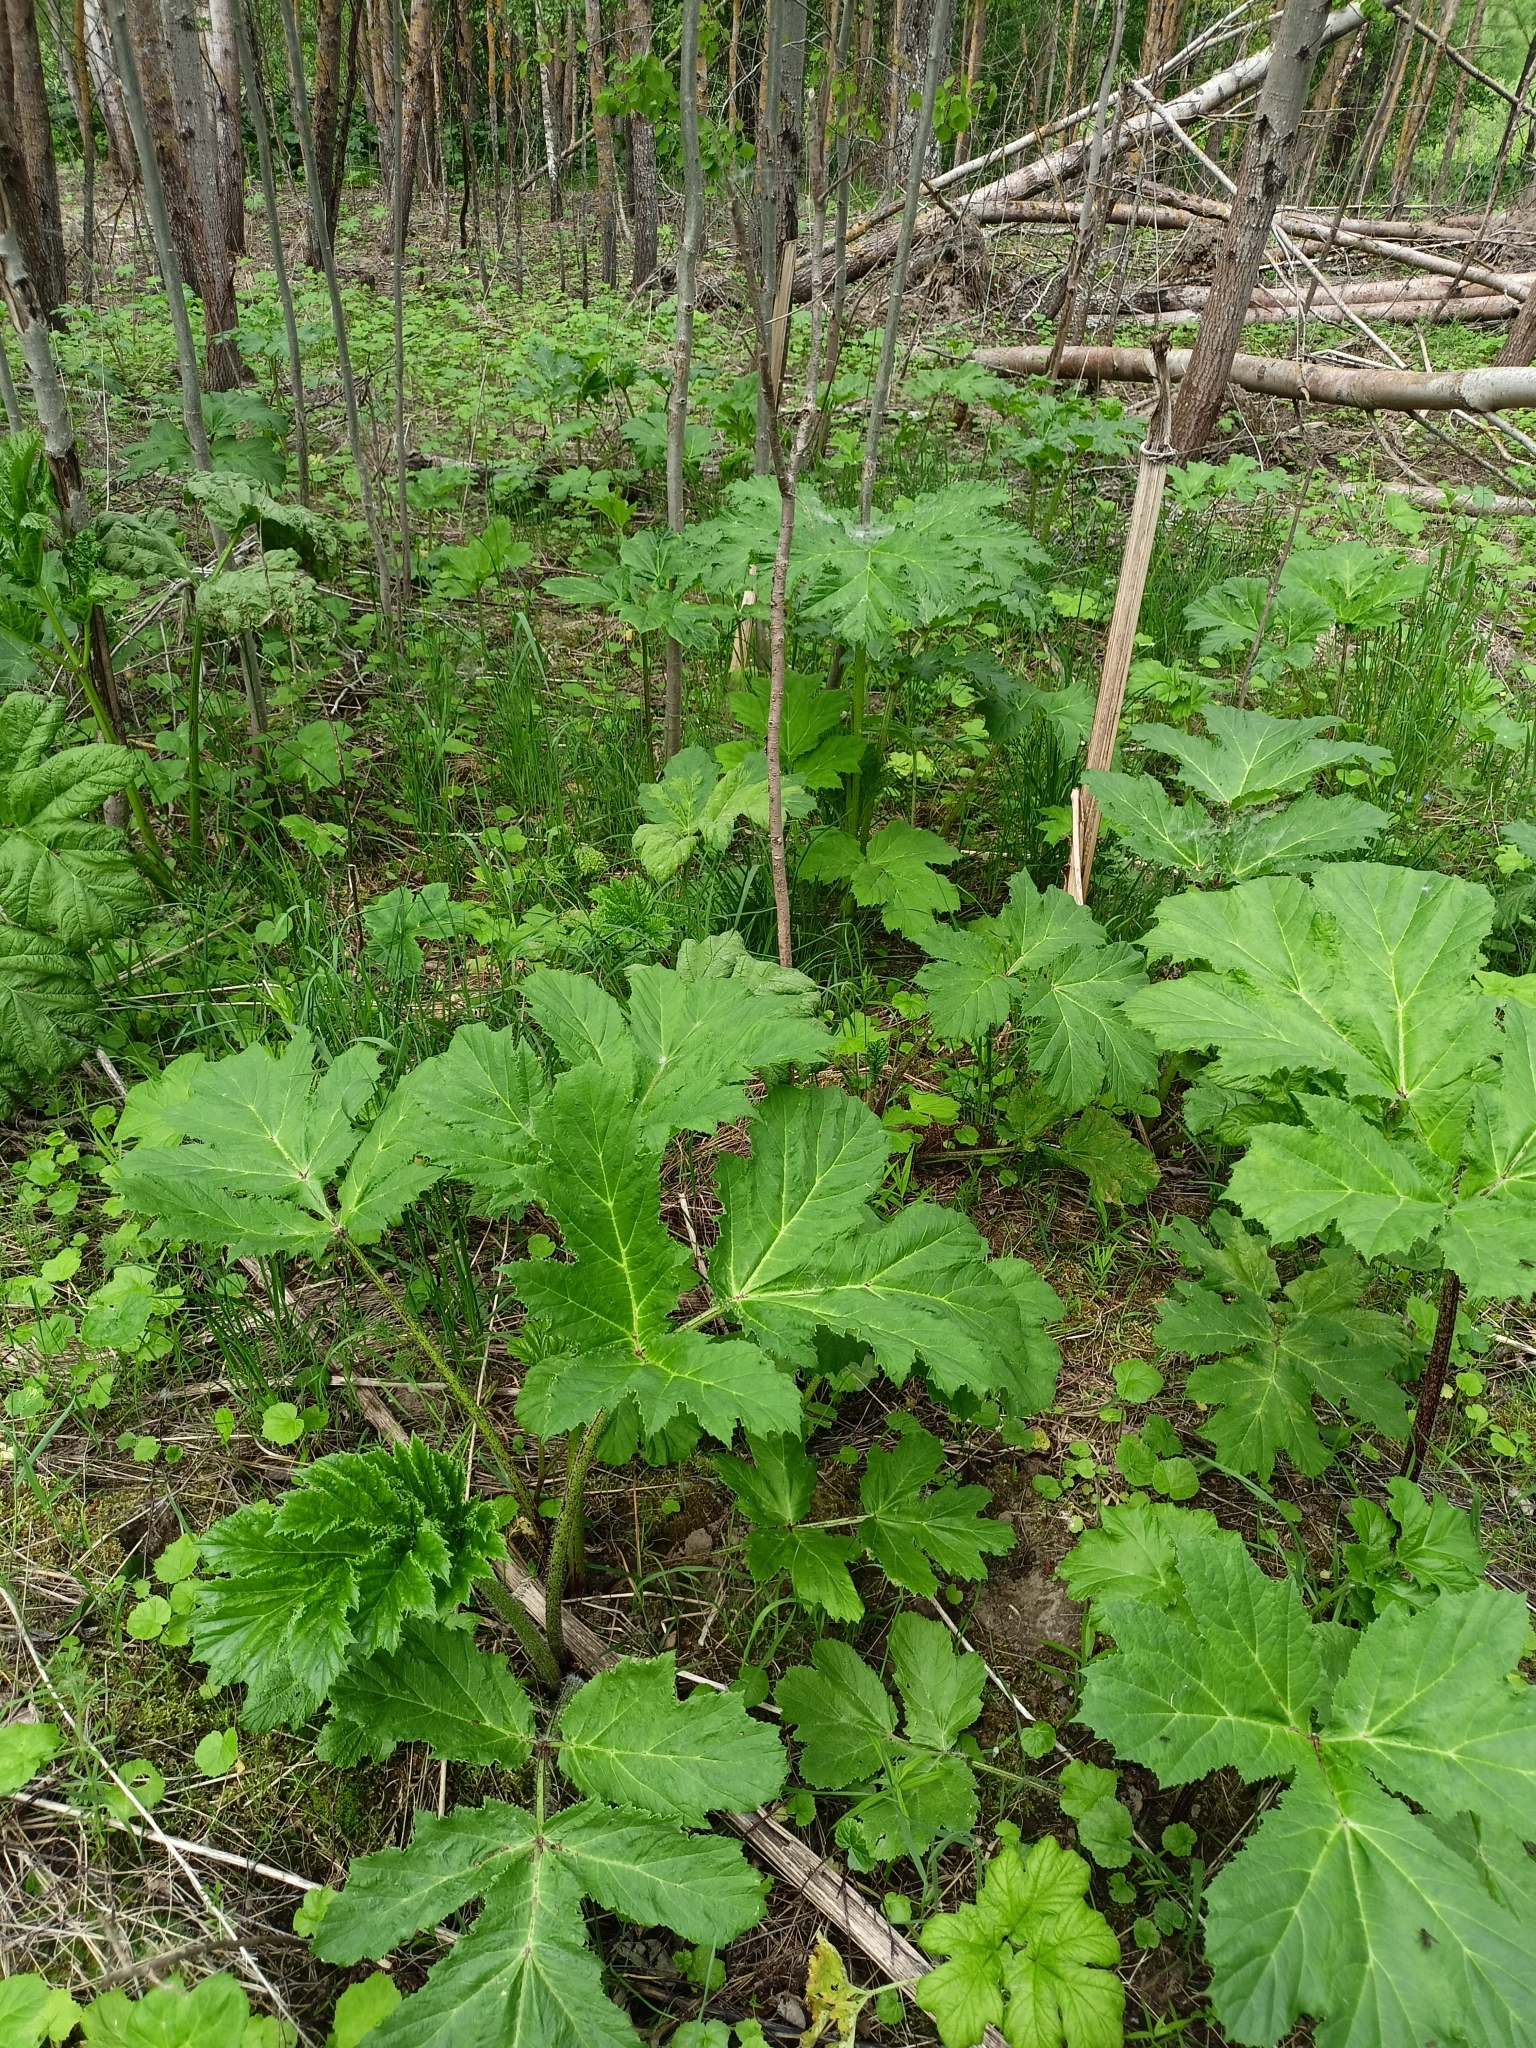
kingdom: Plantae
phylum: Tracheophyta
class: Magnoliopsida
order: Apiales
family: Apiaceae
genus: Heracleum
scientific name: Heracleum sosnowskyi
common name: Sosnowsky's hogweed
